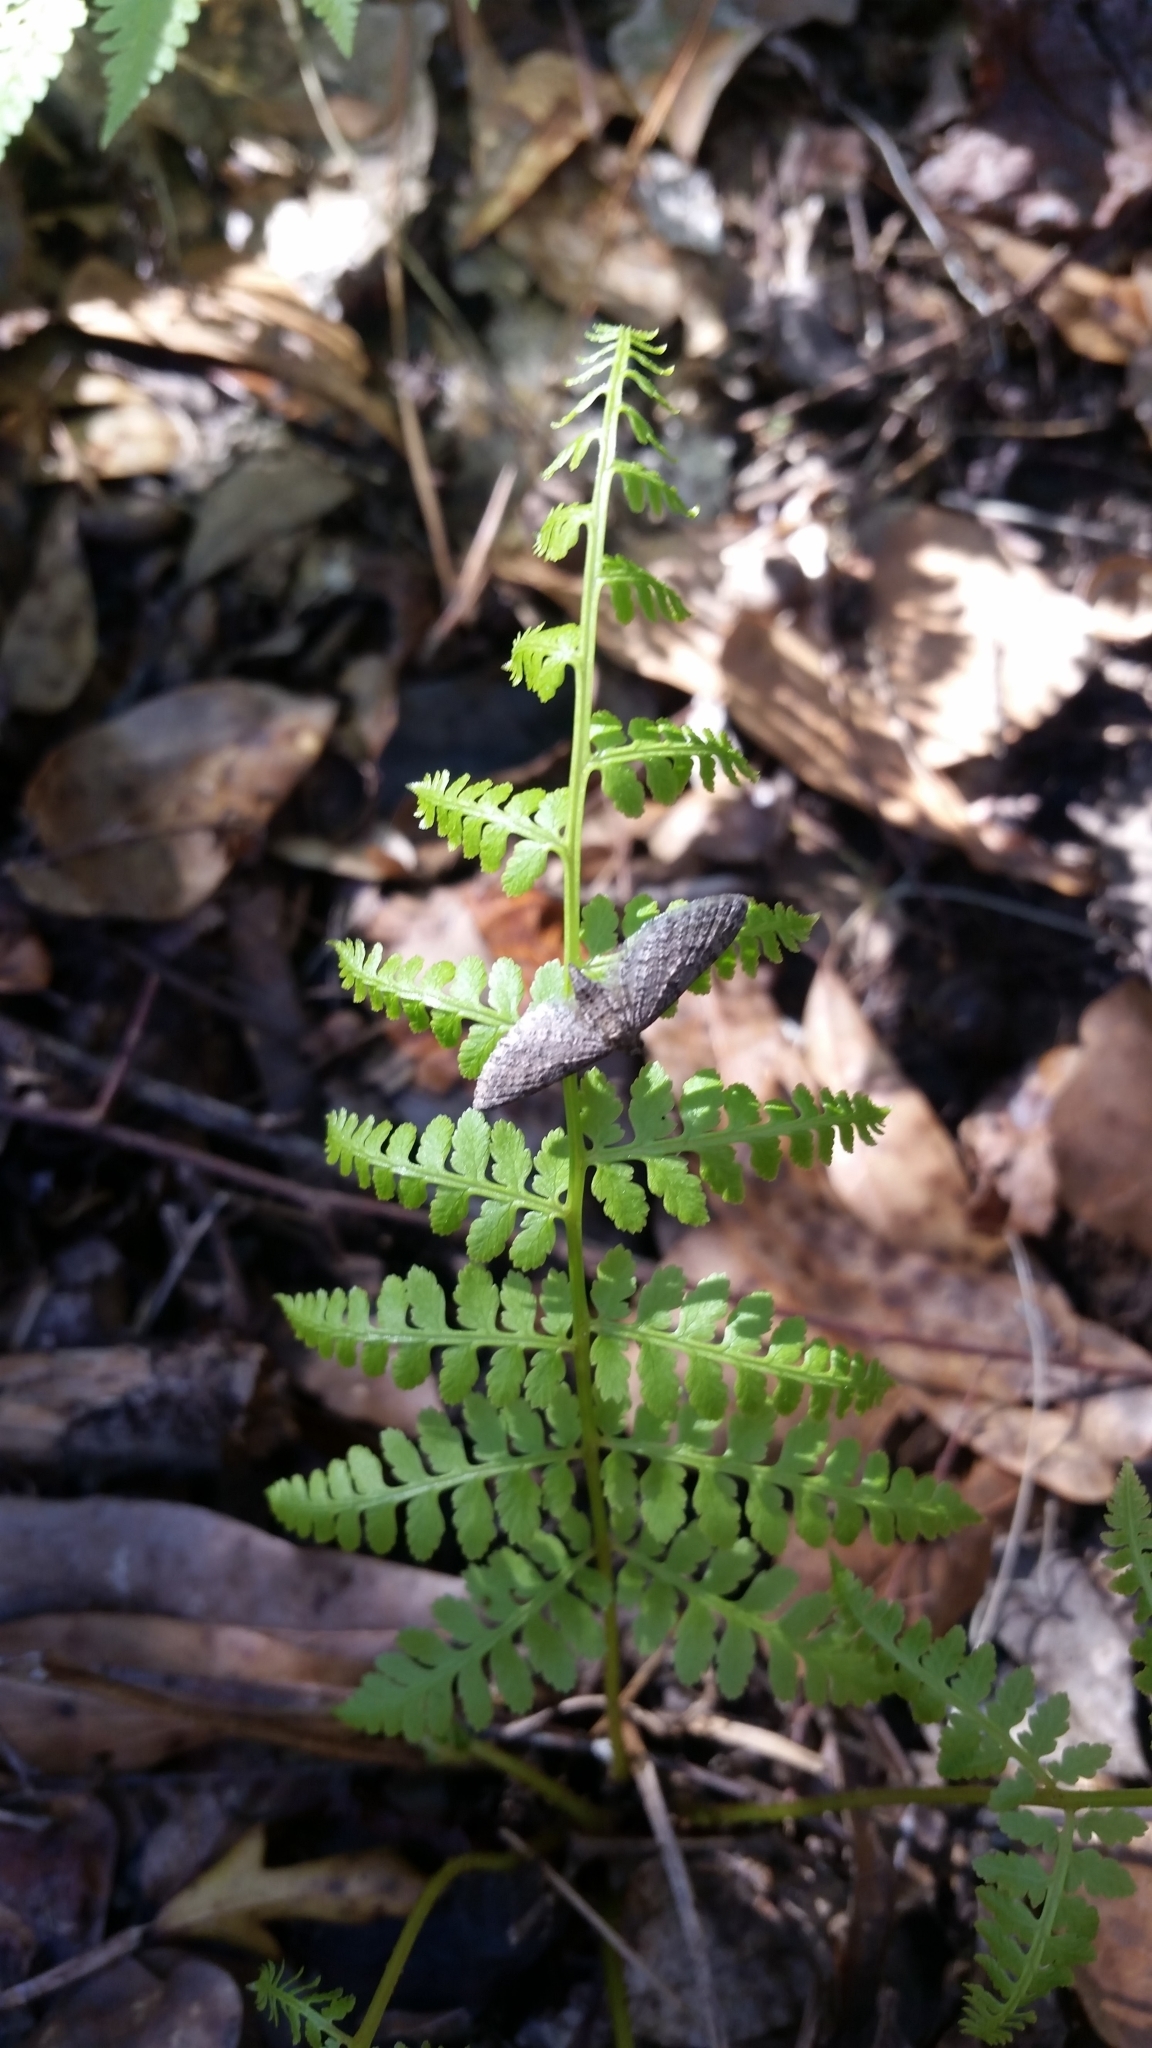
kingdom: Plantae
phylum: Tracheophyta
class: Polypodiopsida
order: Polypodiales
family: Athyriaceae
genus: Athyrium
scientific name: Athyrium asplenioides
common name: Southern lady fern
